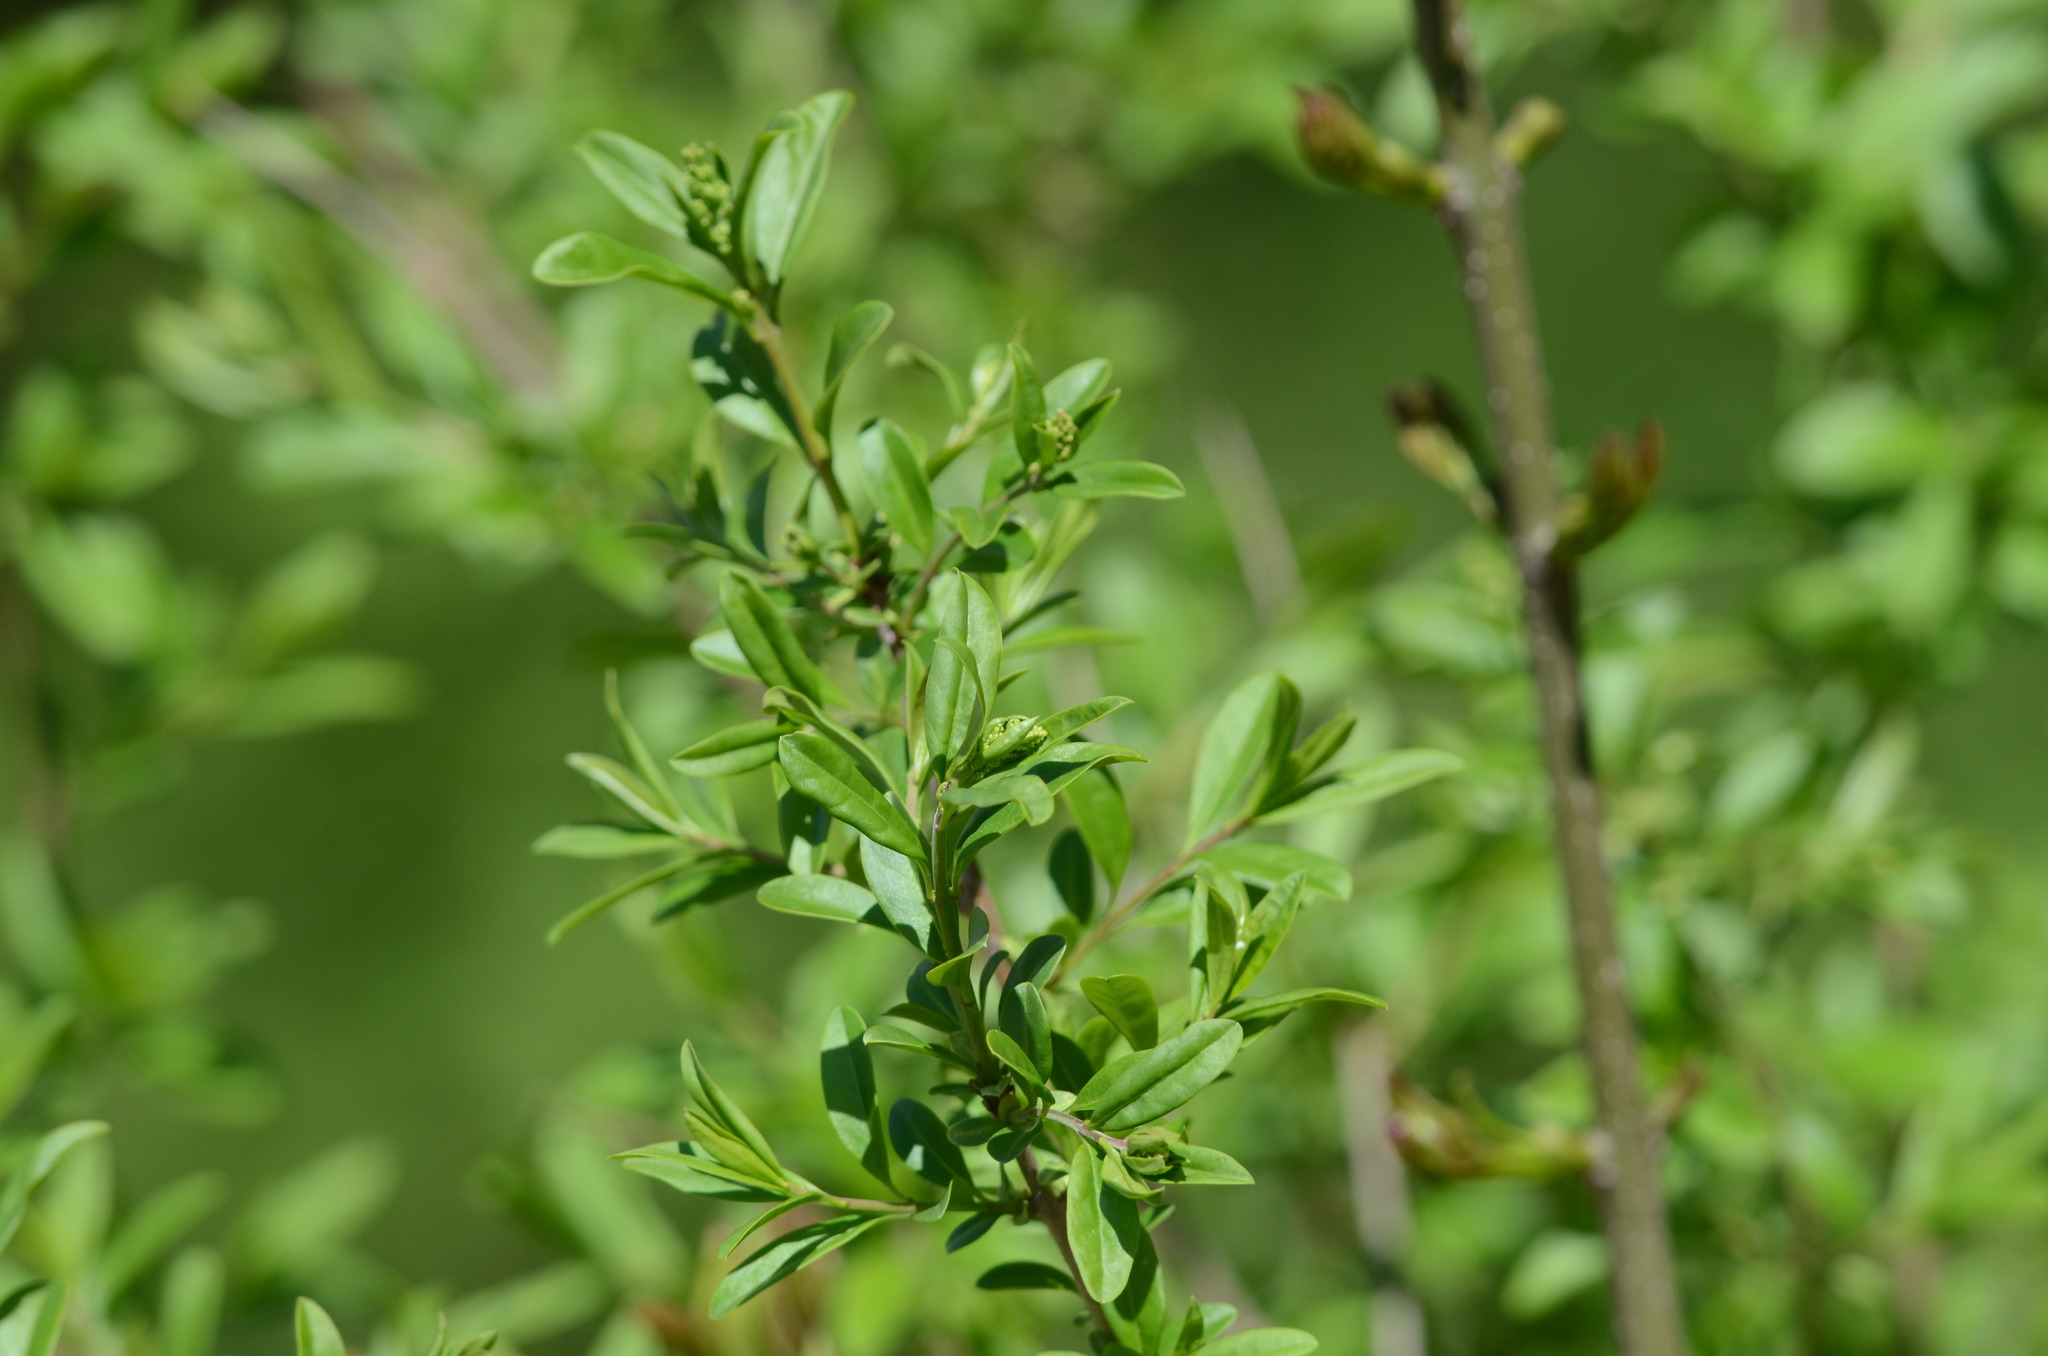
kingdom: Plantae
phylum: Tracheophyta
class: Magnoliopsida
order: Lamiales
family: Oleaceae
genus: Ligustrum
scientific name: Ligustrum vulgare
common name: Wild privet
